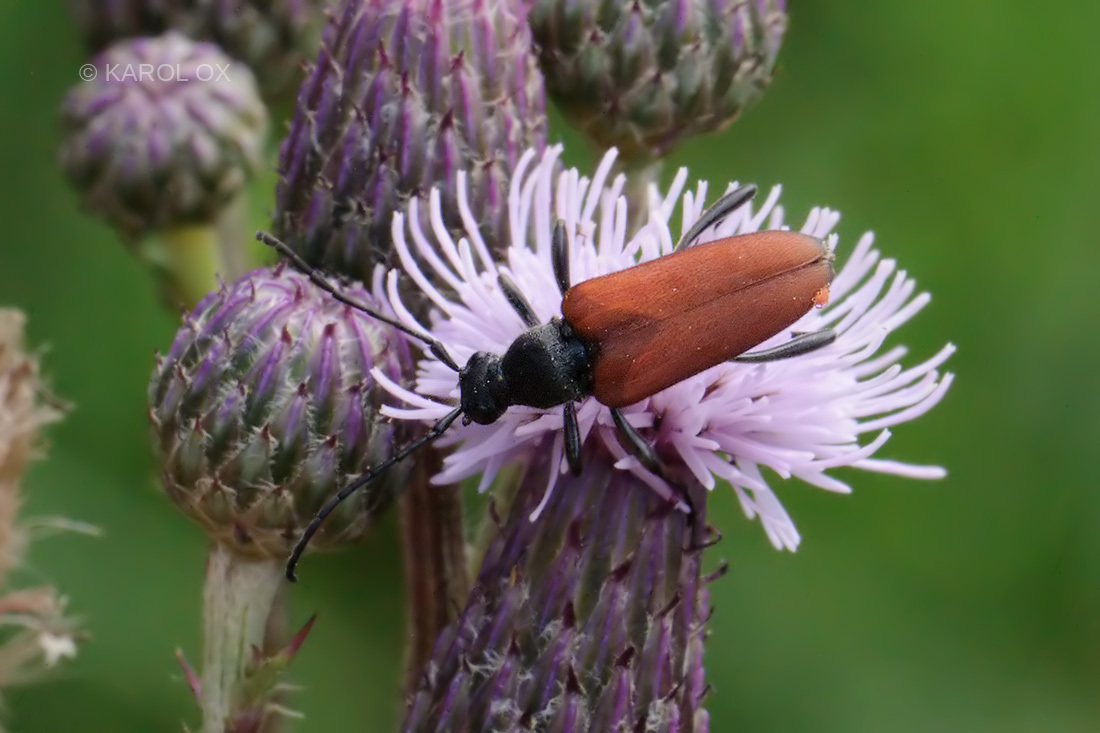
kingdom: Animalia
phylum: Arthropoda
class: Insecta
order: Coleoptera
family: Cerambycidae
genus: Anastrangalia
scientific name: Anastrangalia sanguinolenta
